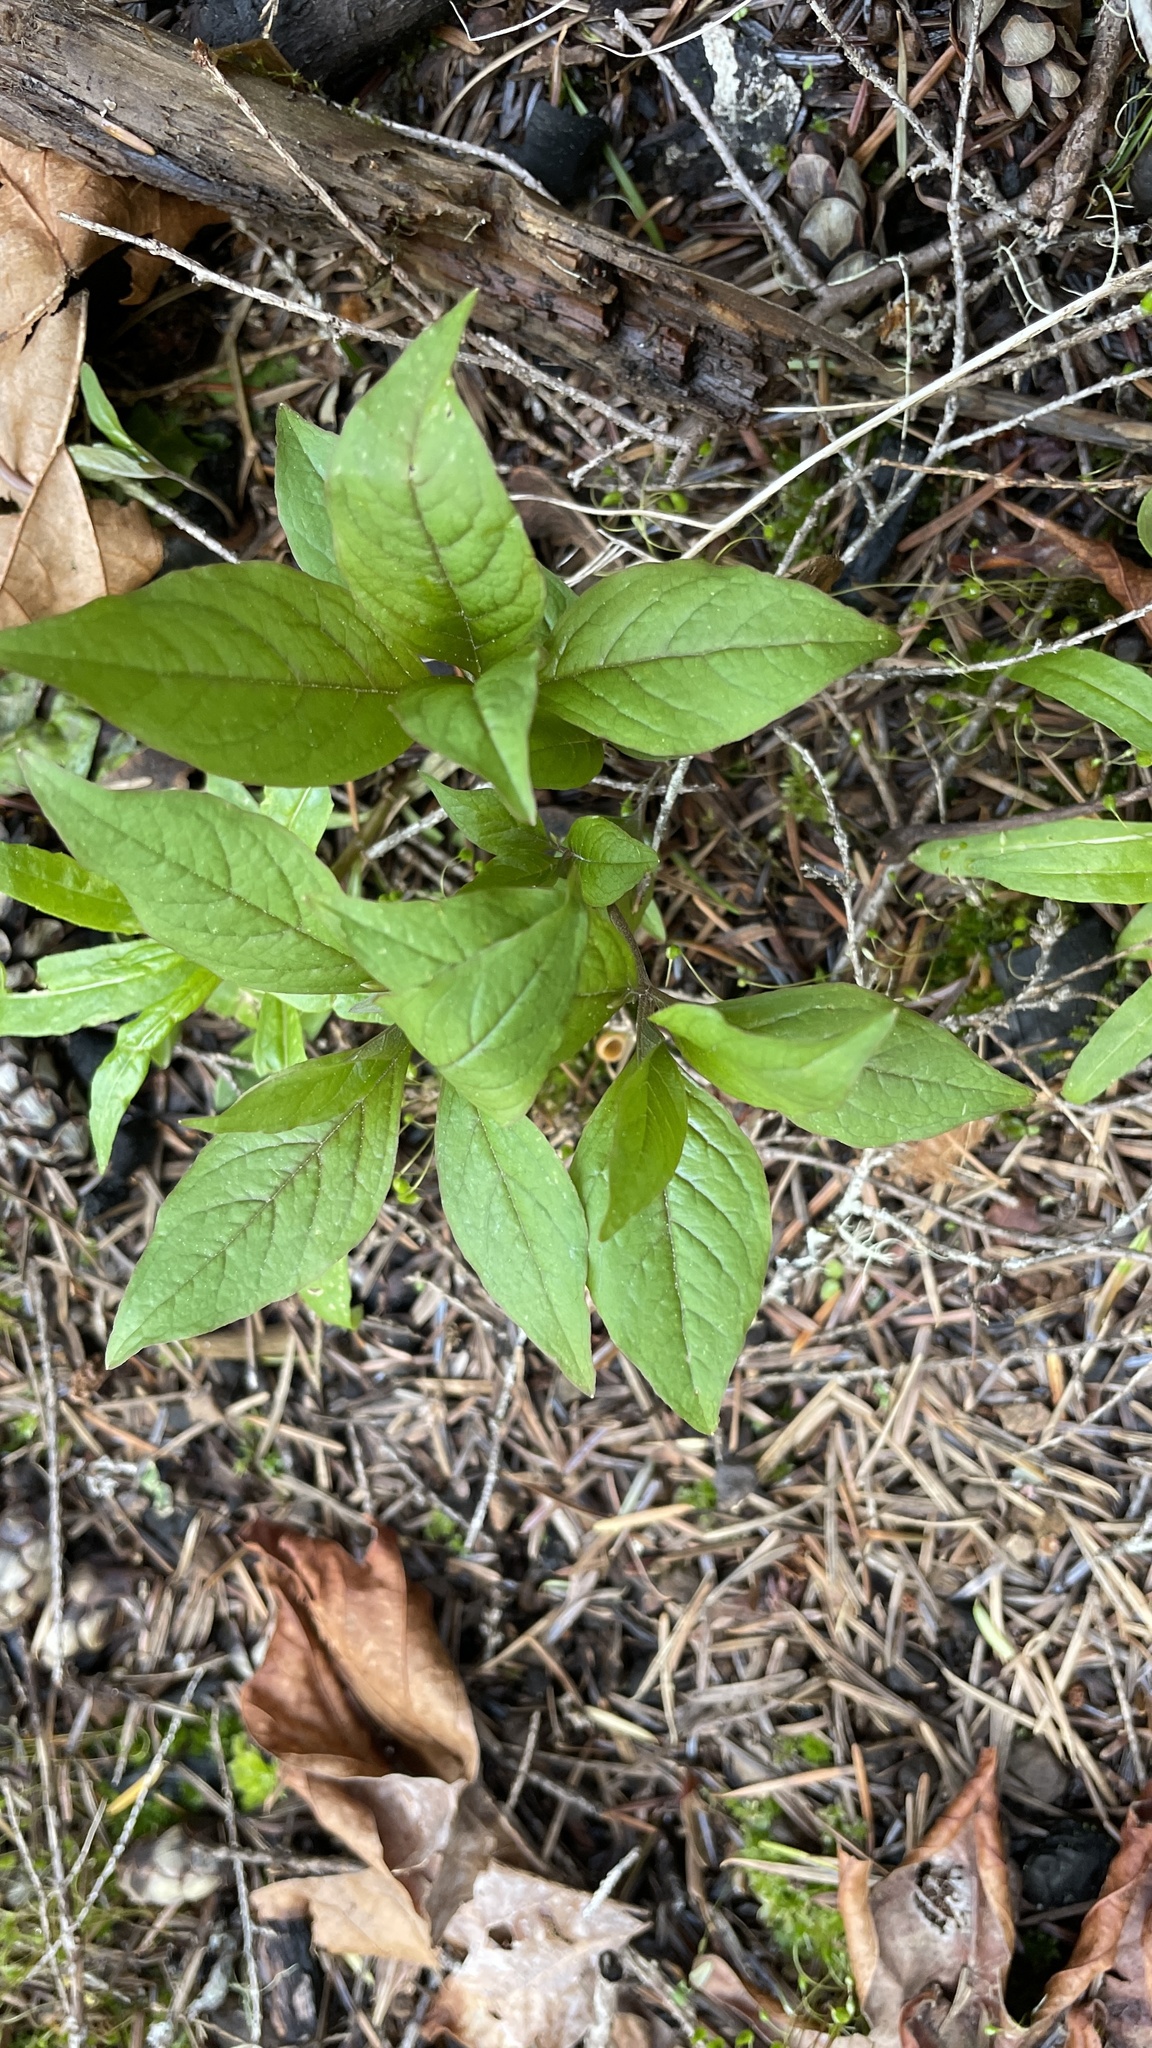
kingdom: Plantae
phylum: Tracheophyta
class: Magnoliopsida
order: Ericales
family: Primulaceae
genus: Lysimachia
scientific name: Lysimachia latifolia
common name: Pacific starflower
